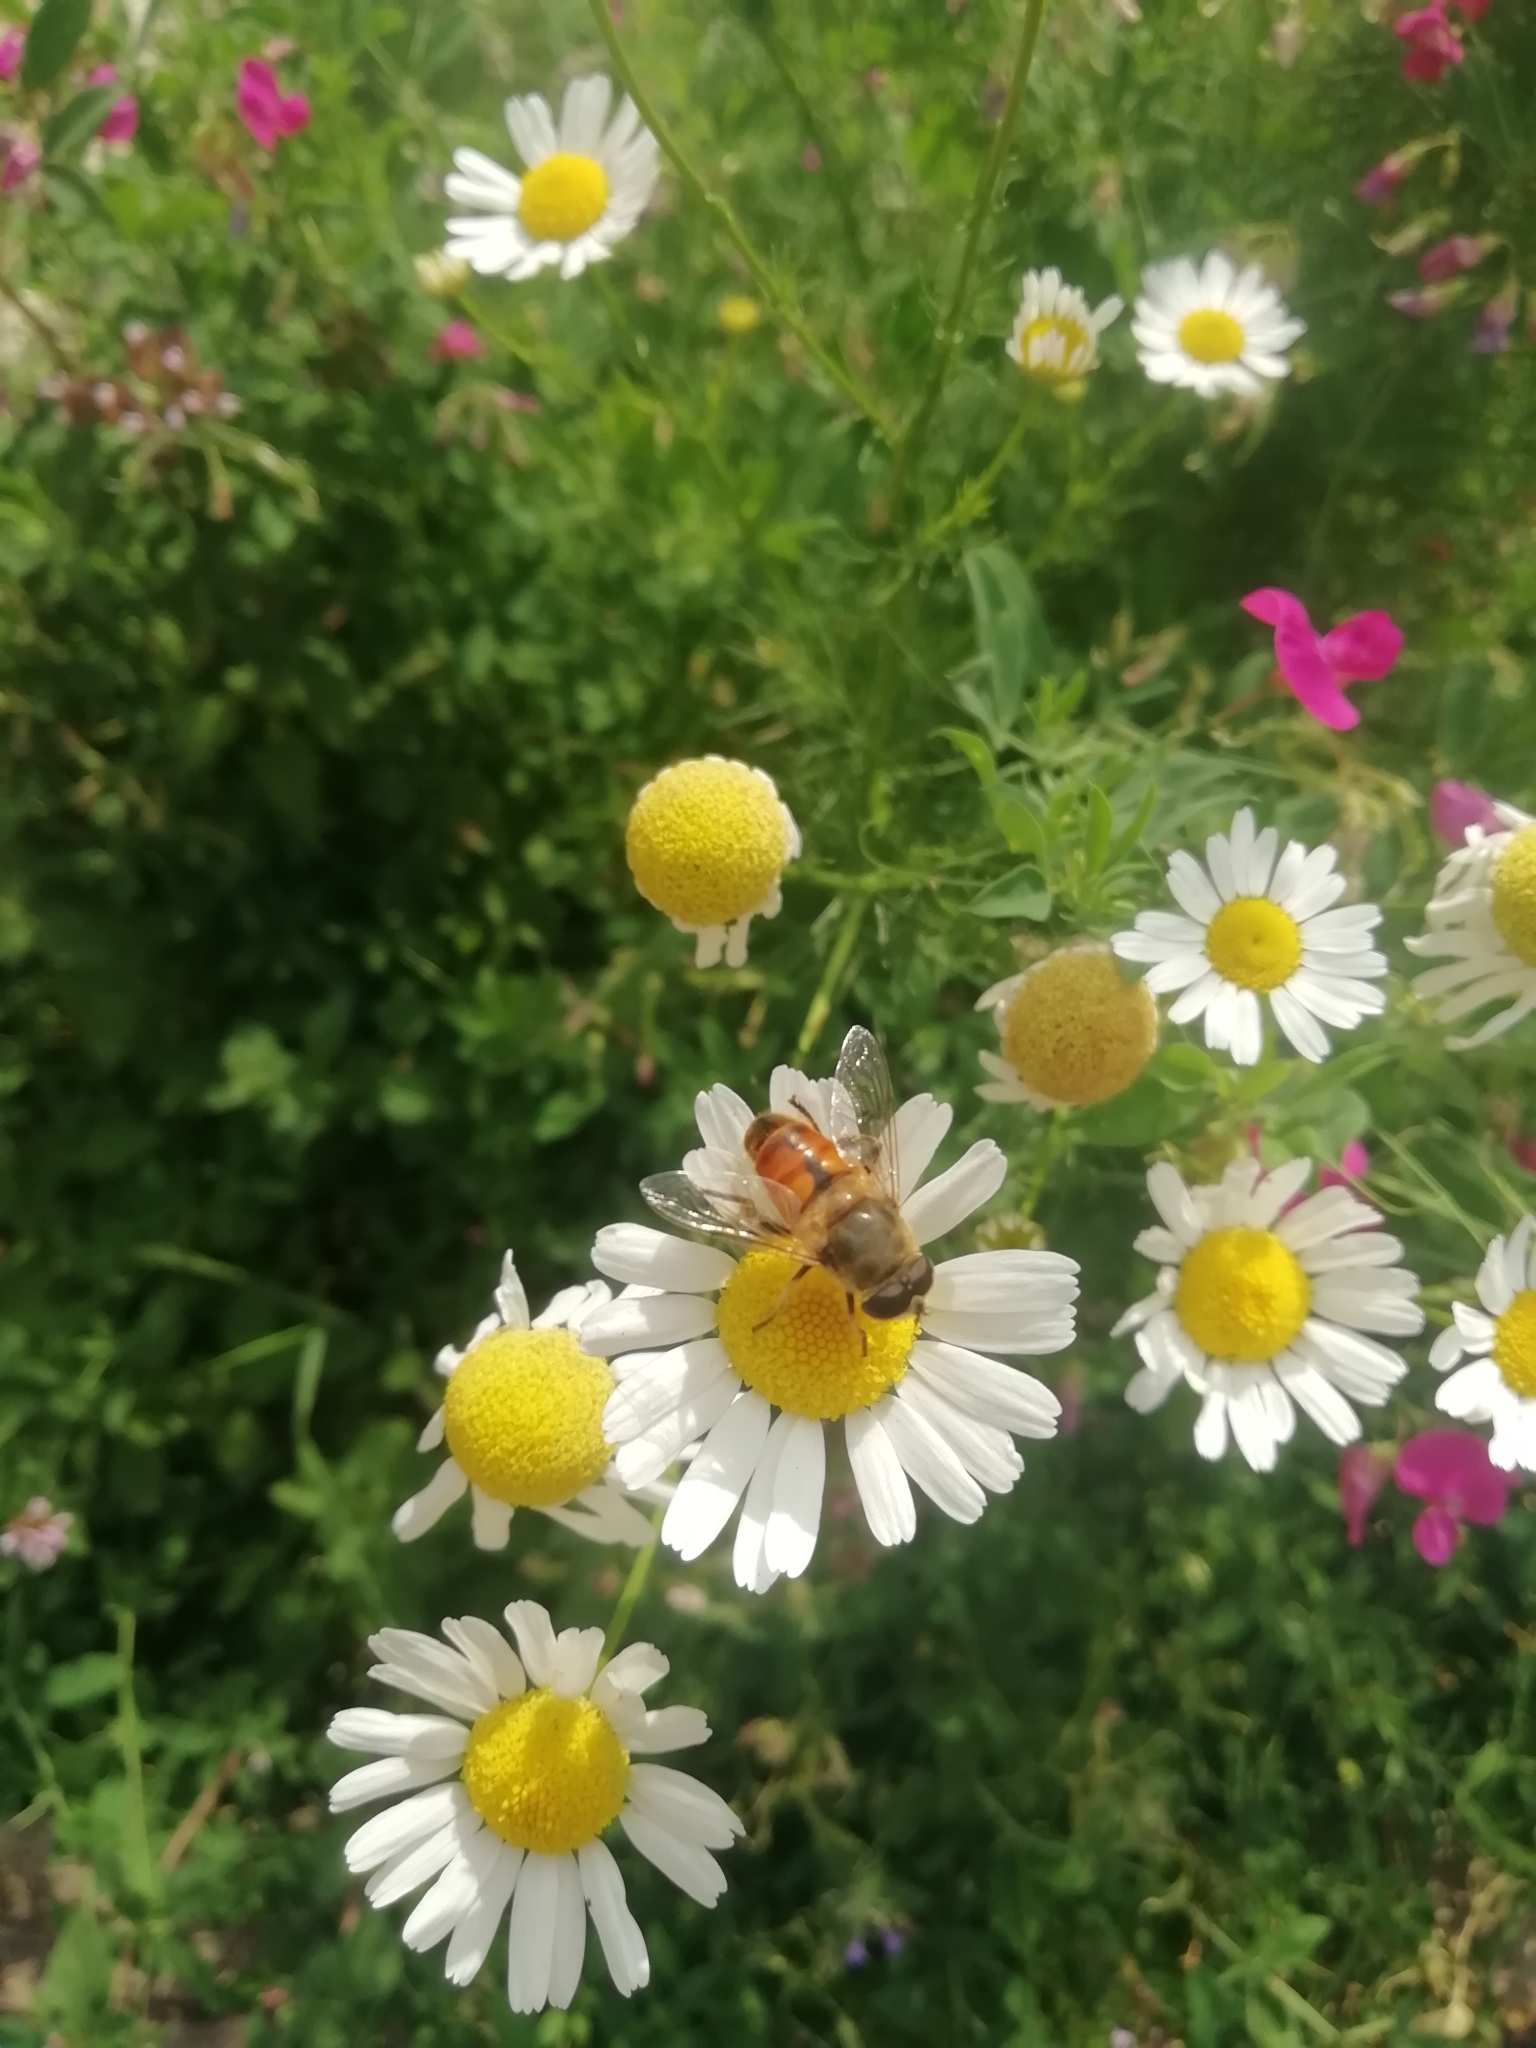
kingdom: Animalia
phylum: Arthropoda
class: Insecta
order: Diptera
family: Syrphidae
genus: Eristalis
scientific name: Eristalis tenax
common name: Drone fly
